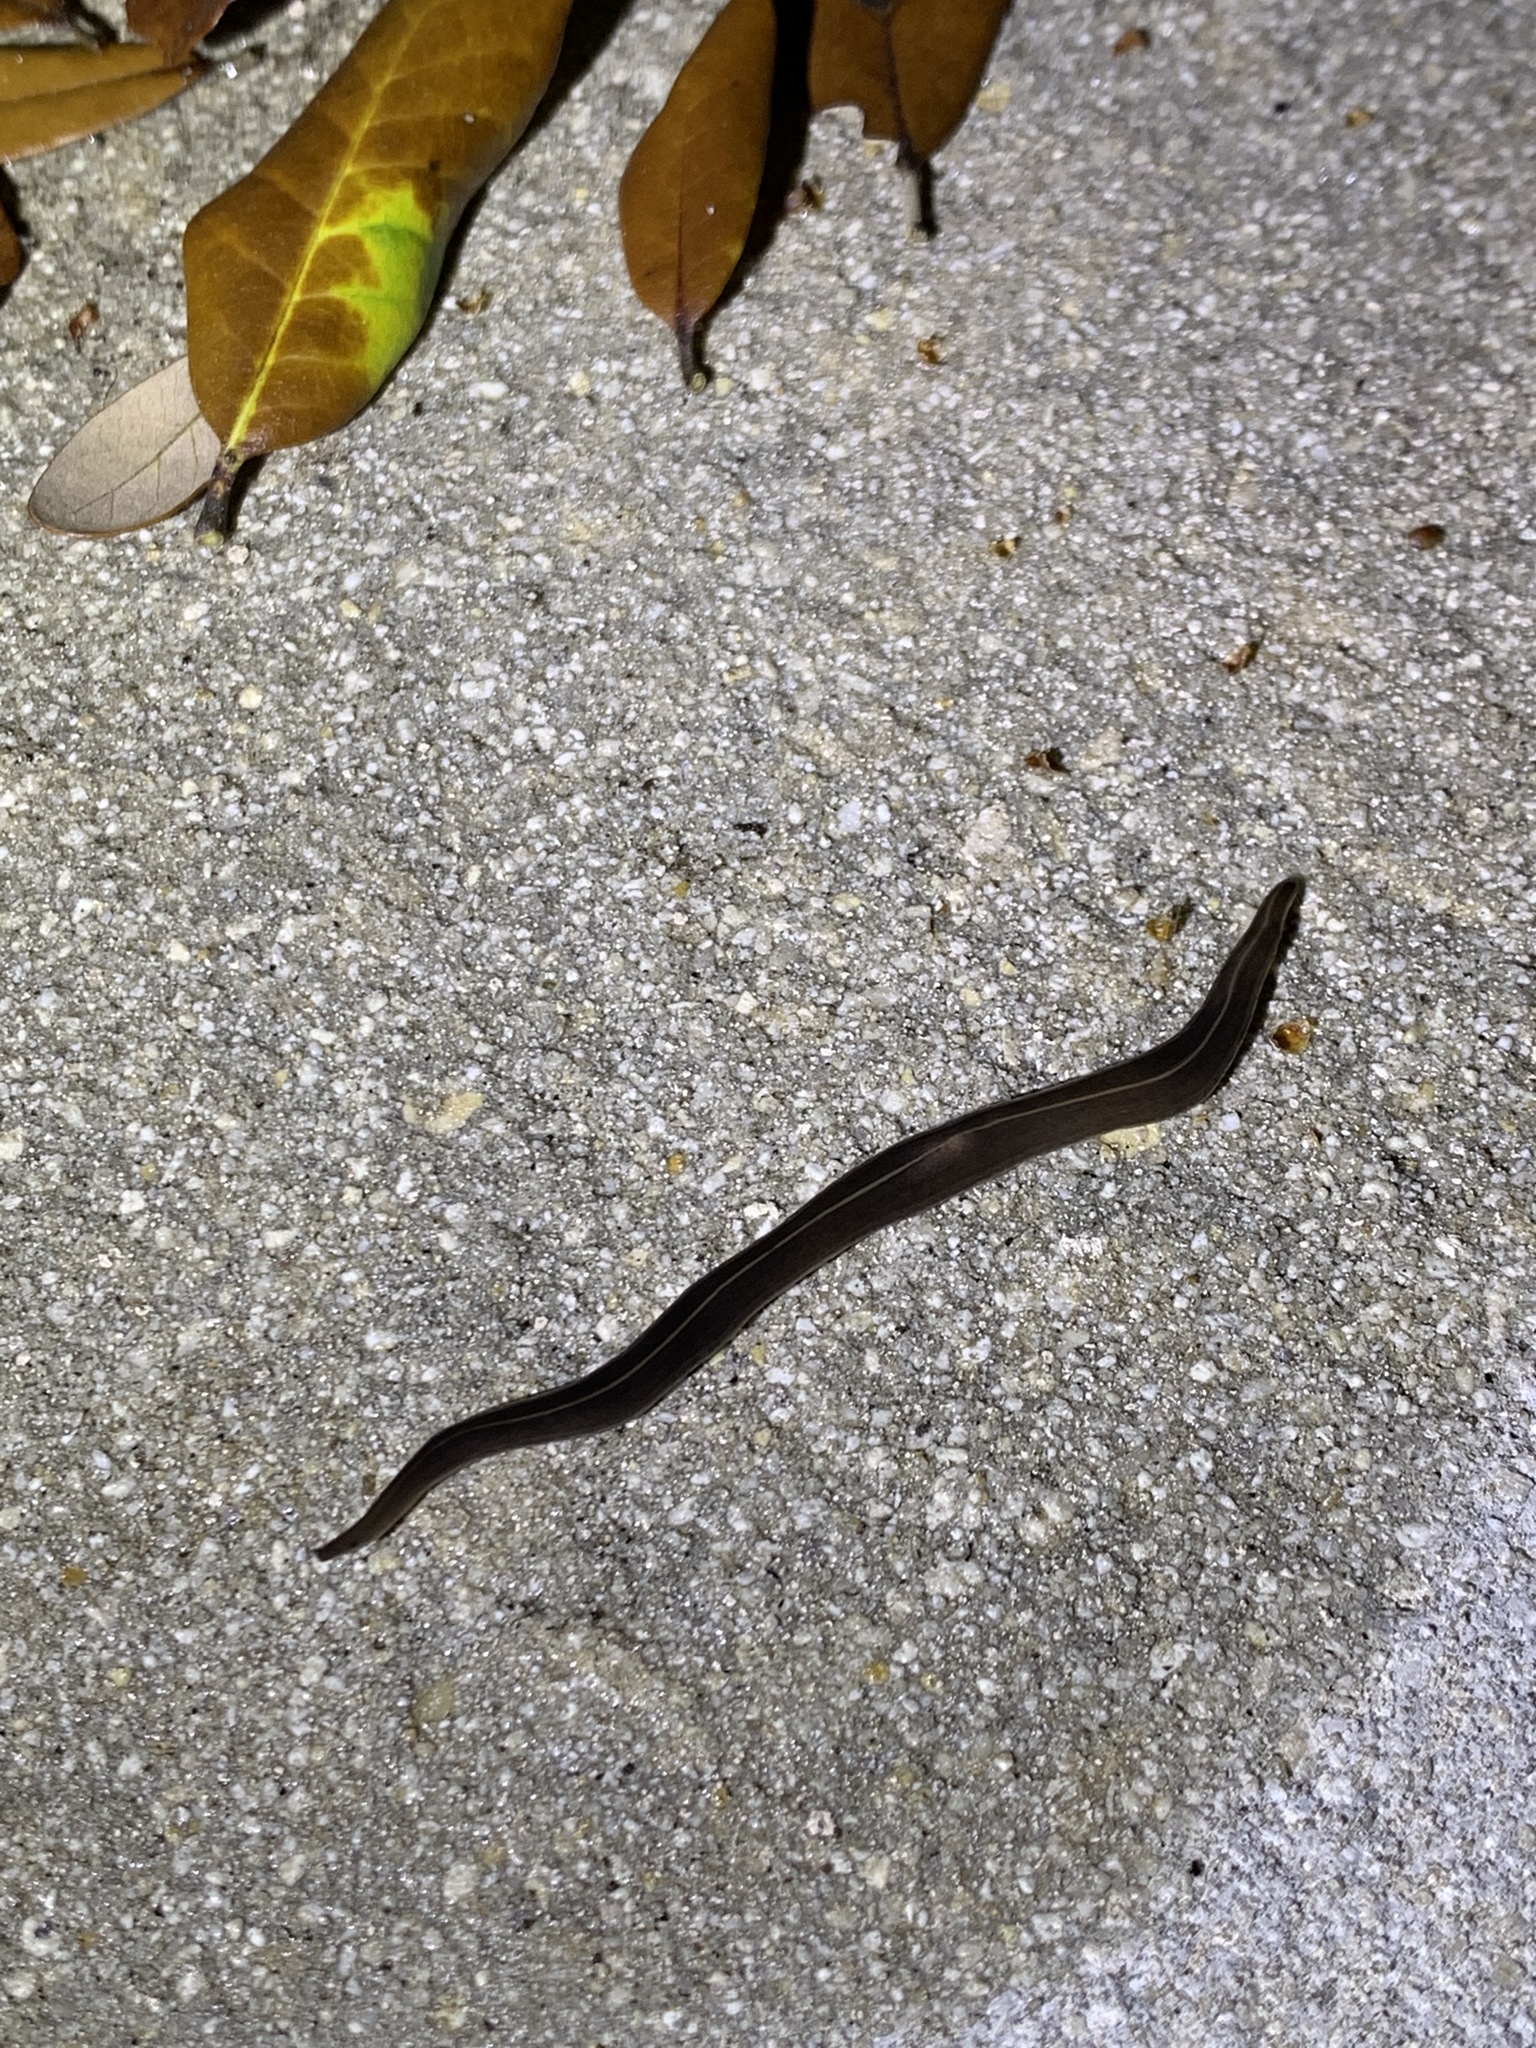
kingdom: Animalia
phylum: Platyhelminthes
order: Tricladida
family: Geoplanidae
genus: Platydemus
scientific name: Platydemus manokwari
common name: New guinea flatworm
